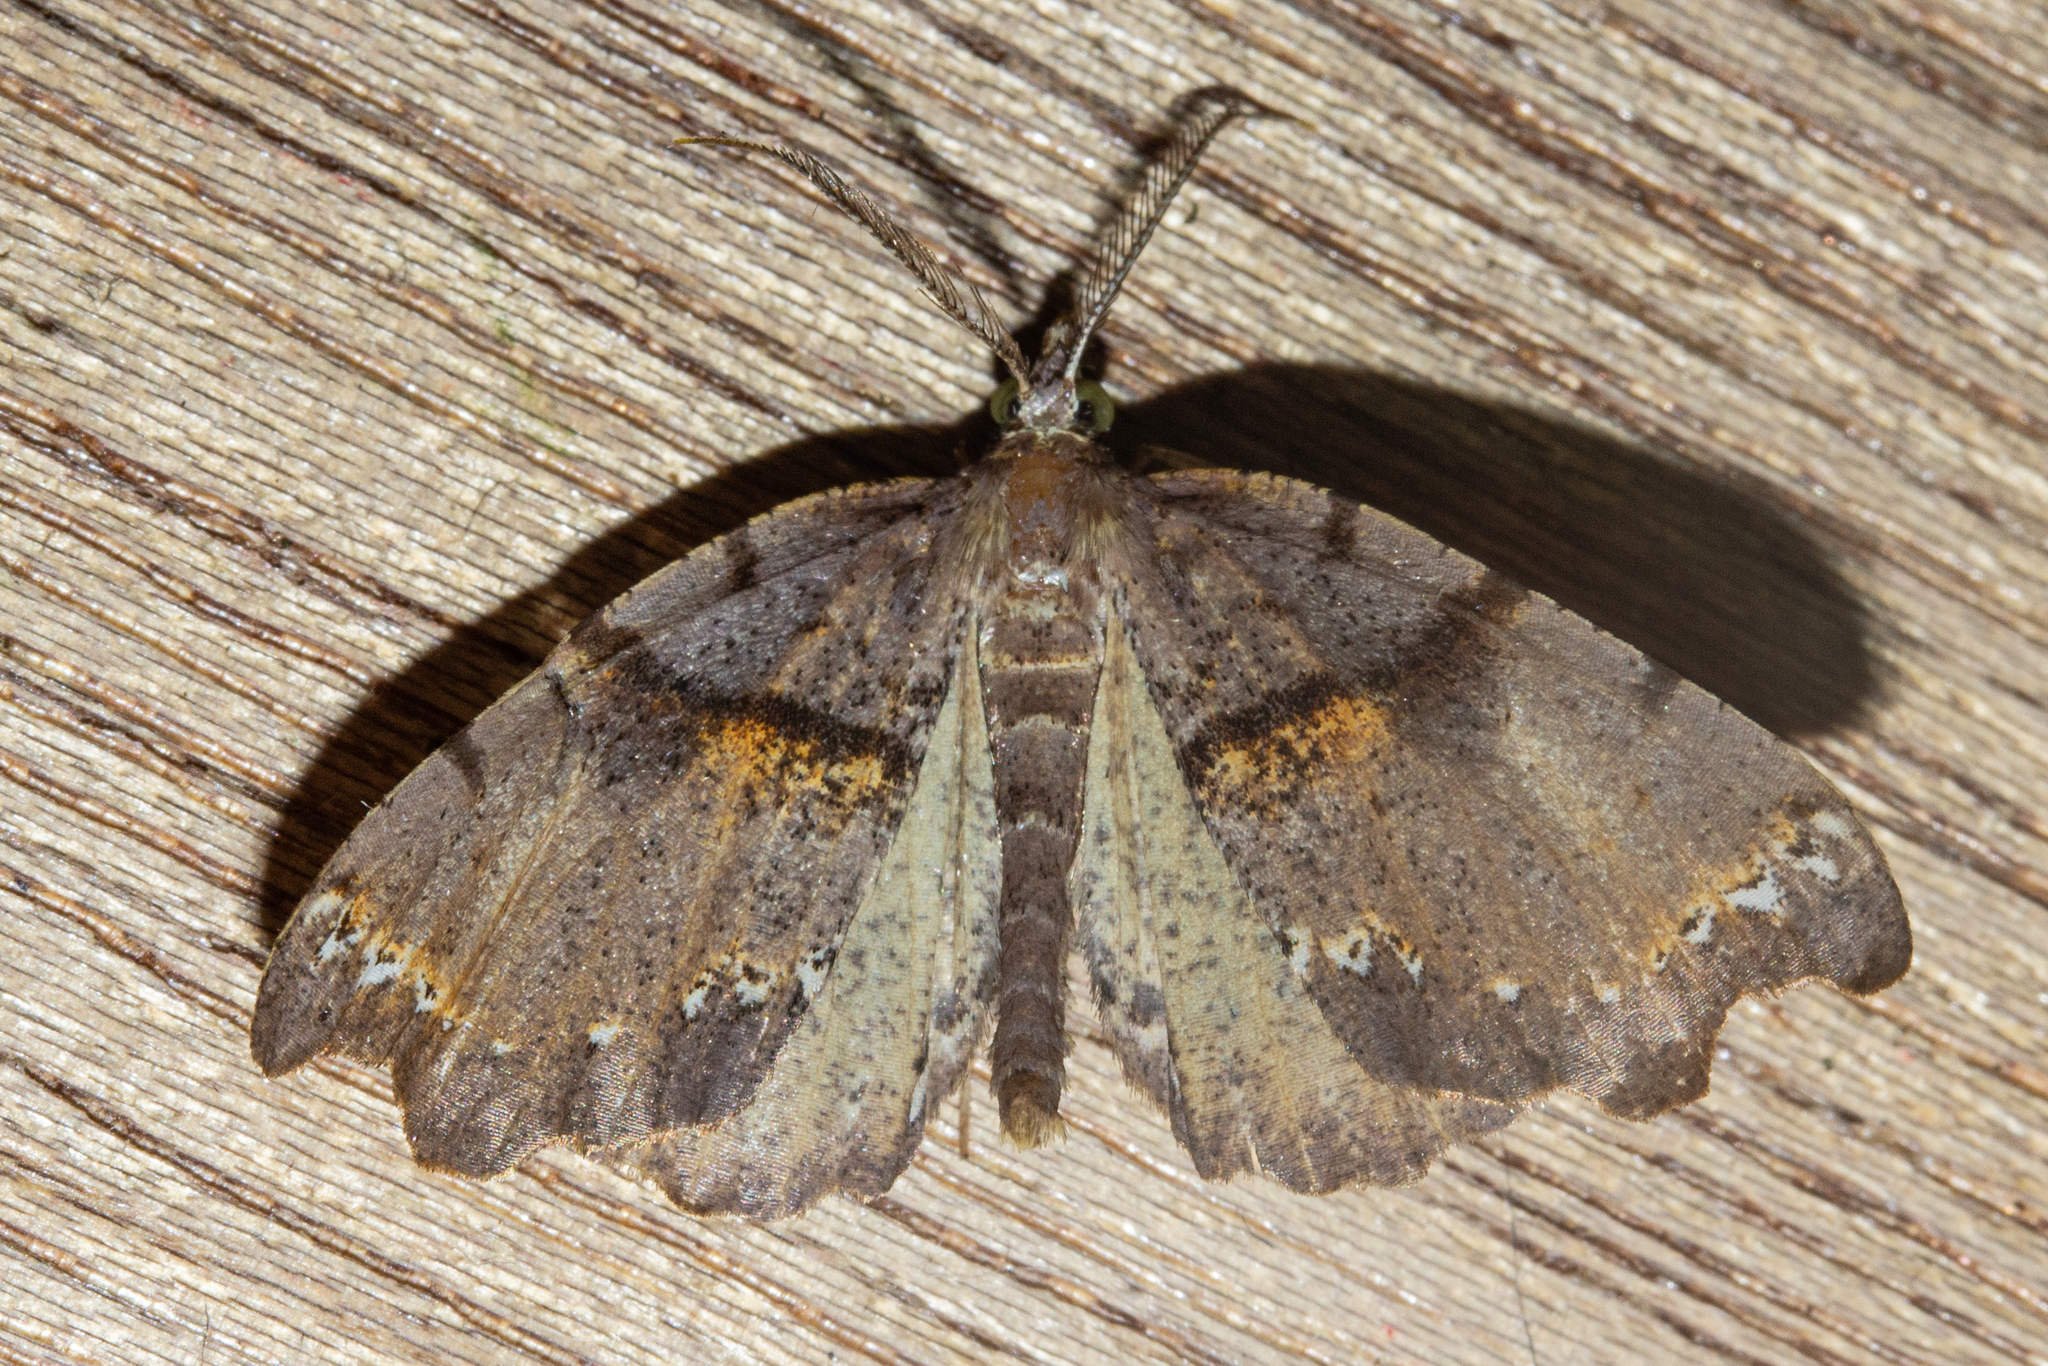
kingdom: Animalia
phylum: Arthropoda
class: Insecta
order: Lepidoptera
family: Geometridae
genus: Chalastra
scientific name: Chalastra pellurgata
